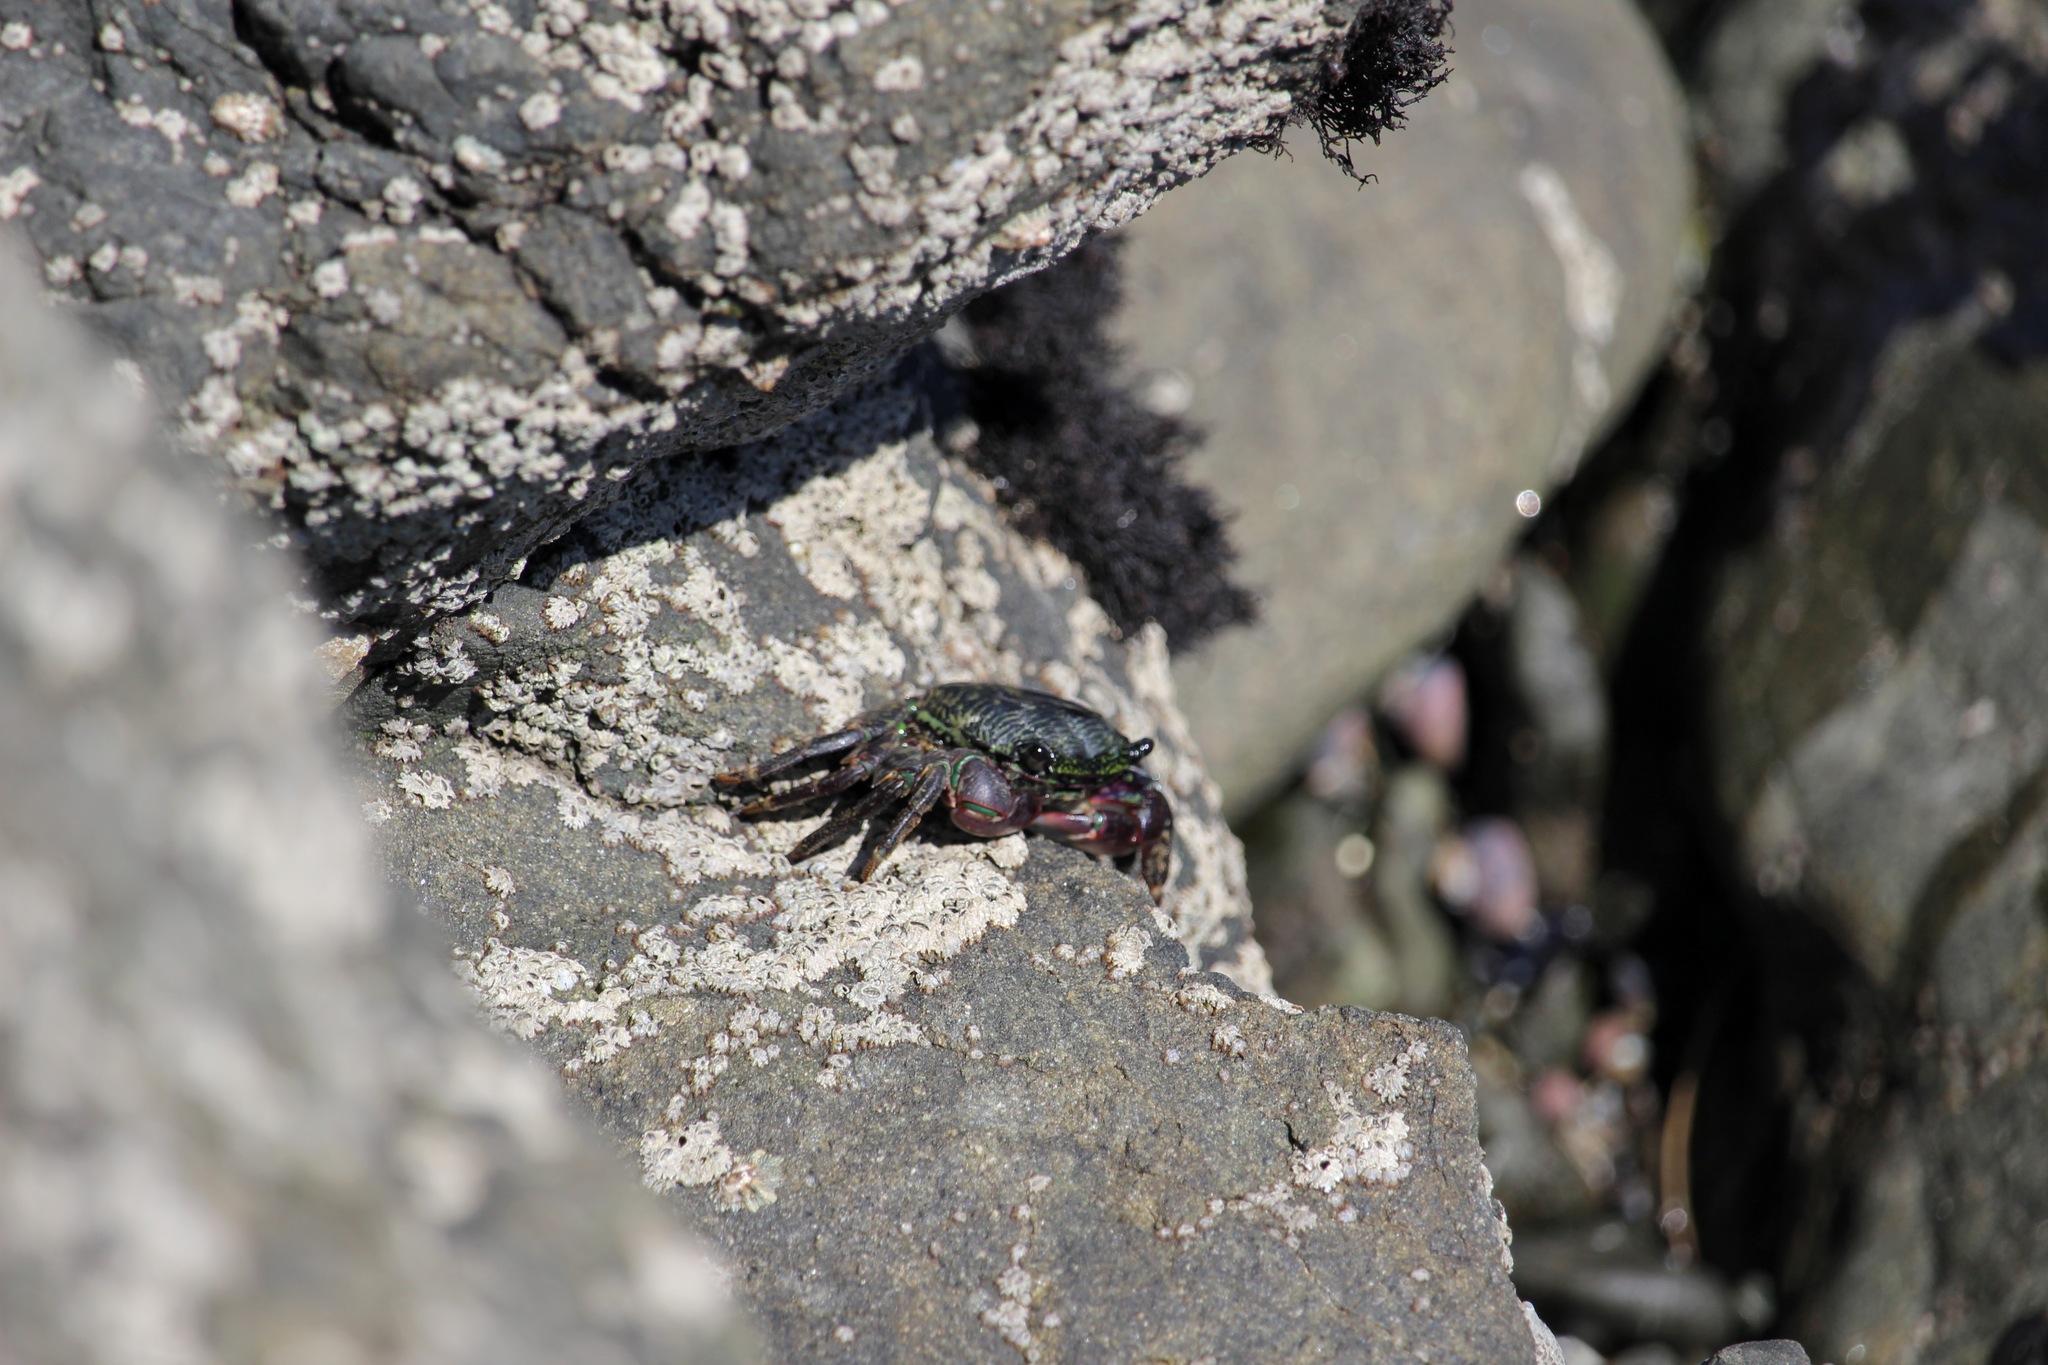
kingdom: Animalia
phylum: Arthropoda
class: Malacostraca
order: Decapoda
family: Grapsidae
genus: Pachygrapsus
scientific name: Pachygrapsus crassipes
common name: Striped shore crab
